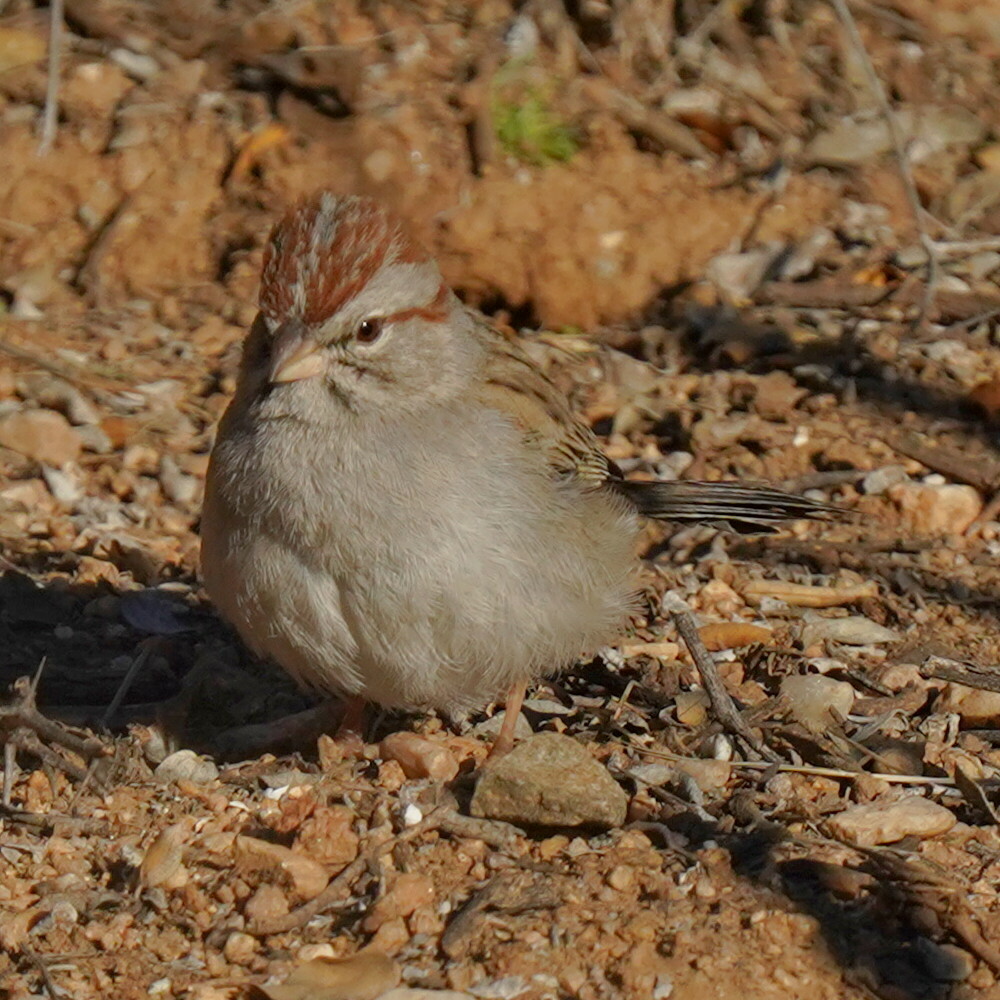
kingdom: Animalia
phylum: Chordata
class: Aves
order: Passeriformes
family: Passerellidae
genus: Peucaea
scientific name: Peucaea carpalis
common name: Rufous-winged sparrow
